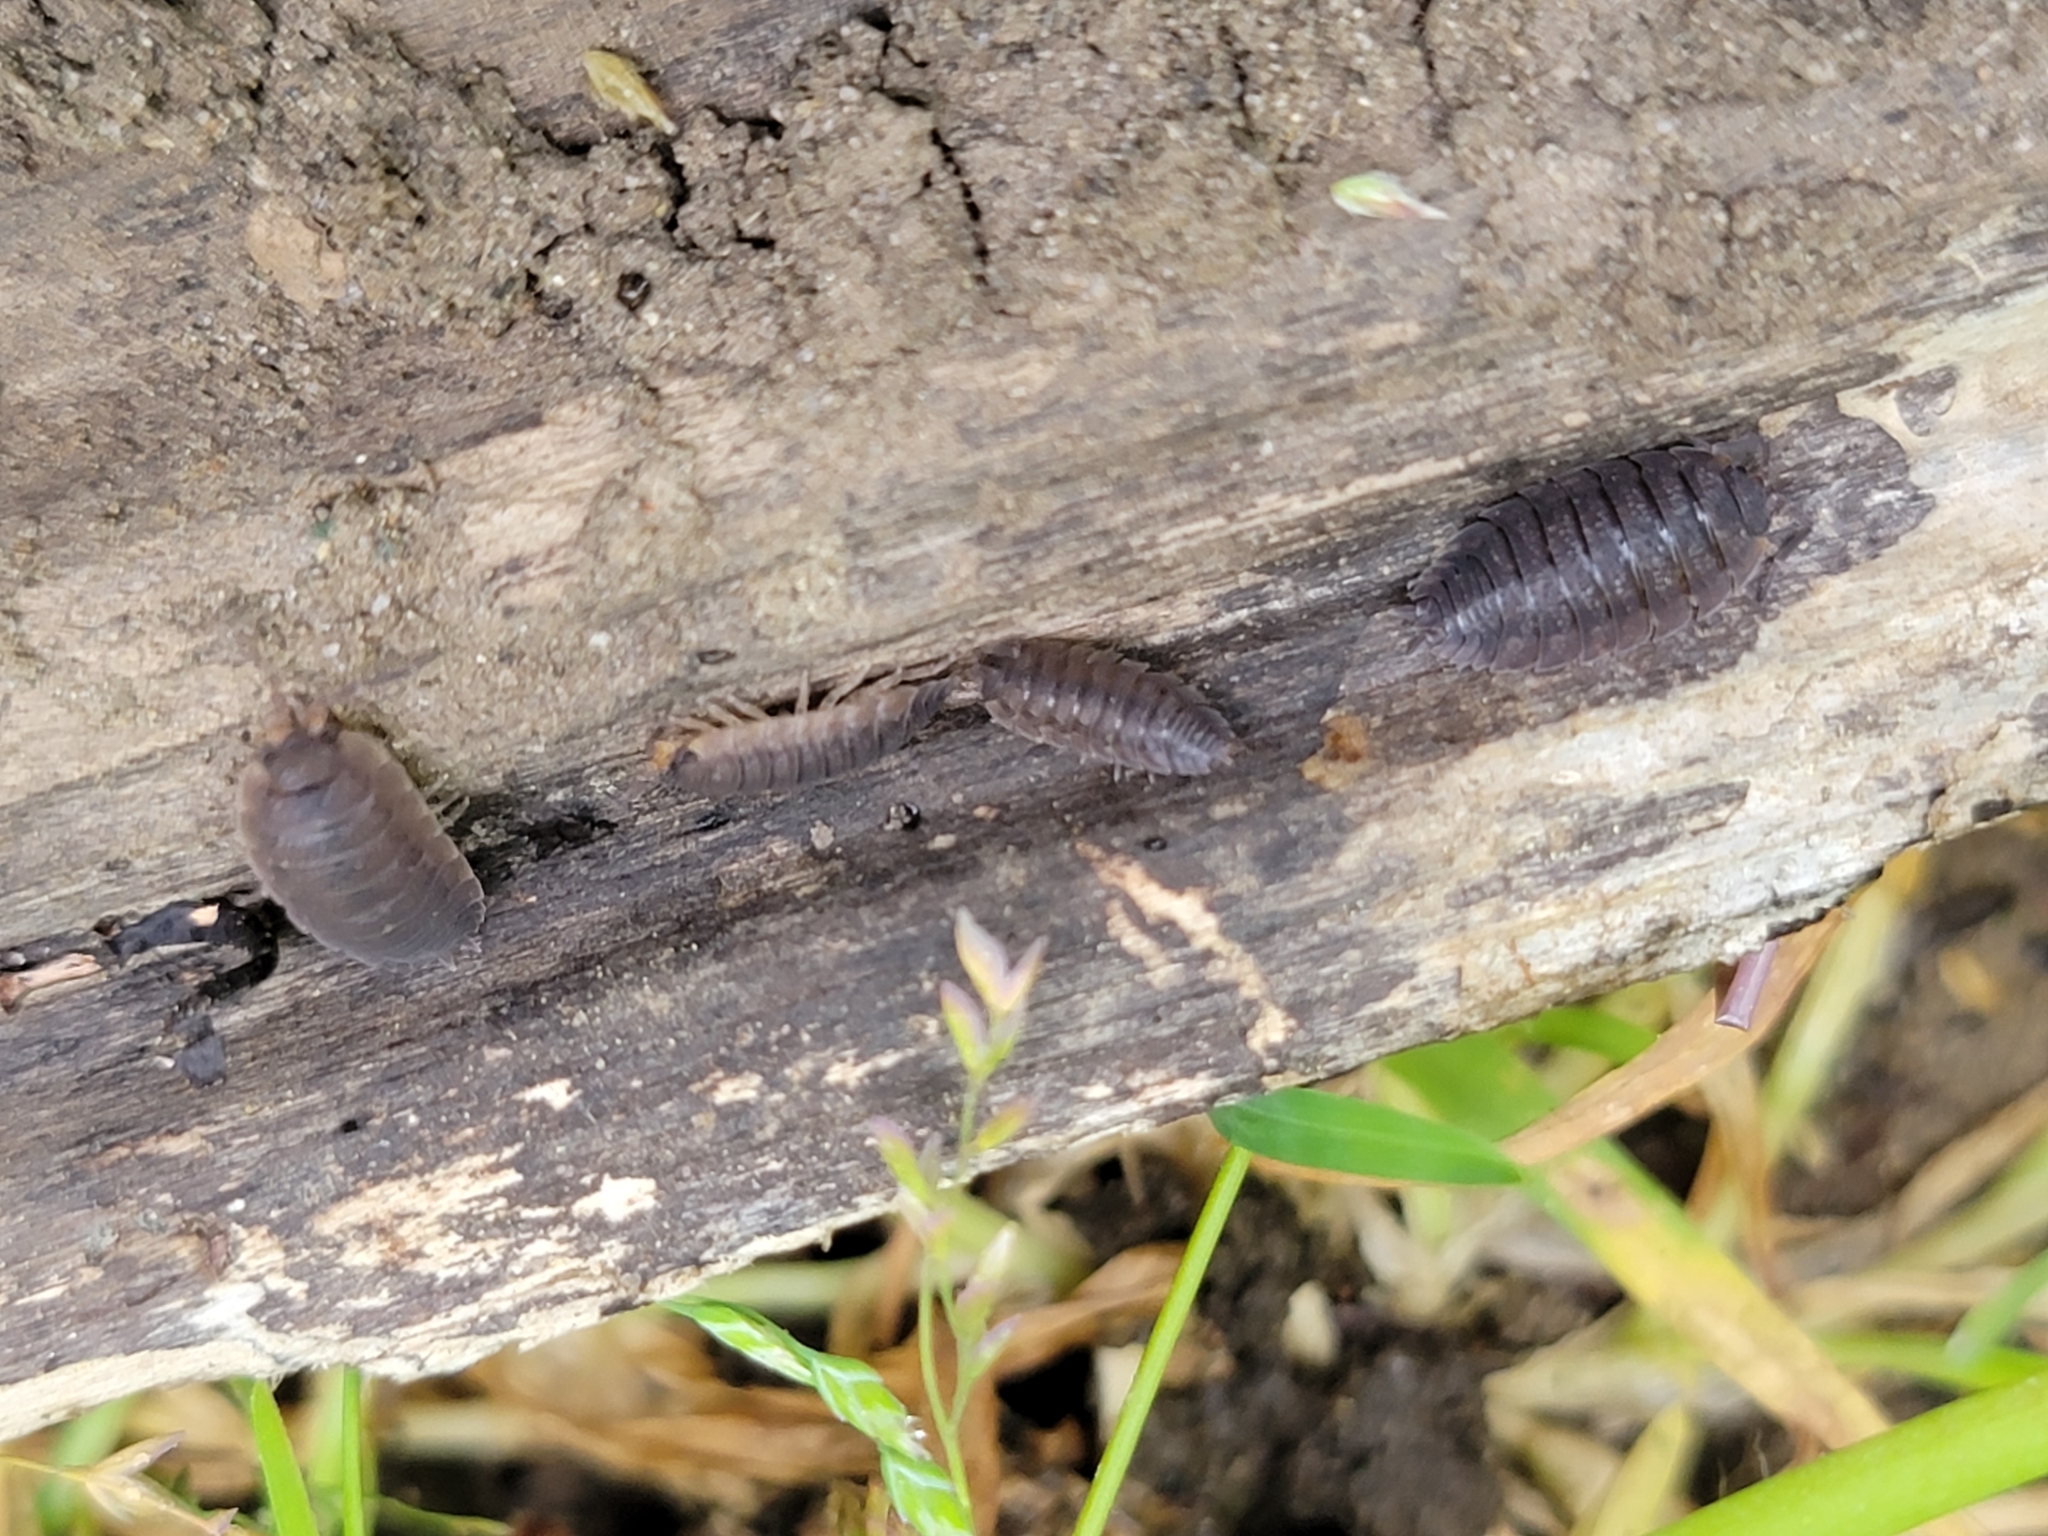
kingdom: Animalia
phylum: Arthropoda
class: Malacostraca
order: Isopoda
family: Porcellionidae
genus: Porcellio
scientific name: Porcellio scaber
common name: Common rough woodlouse
